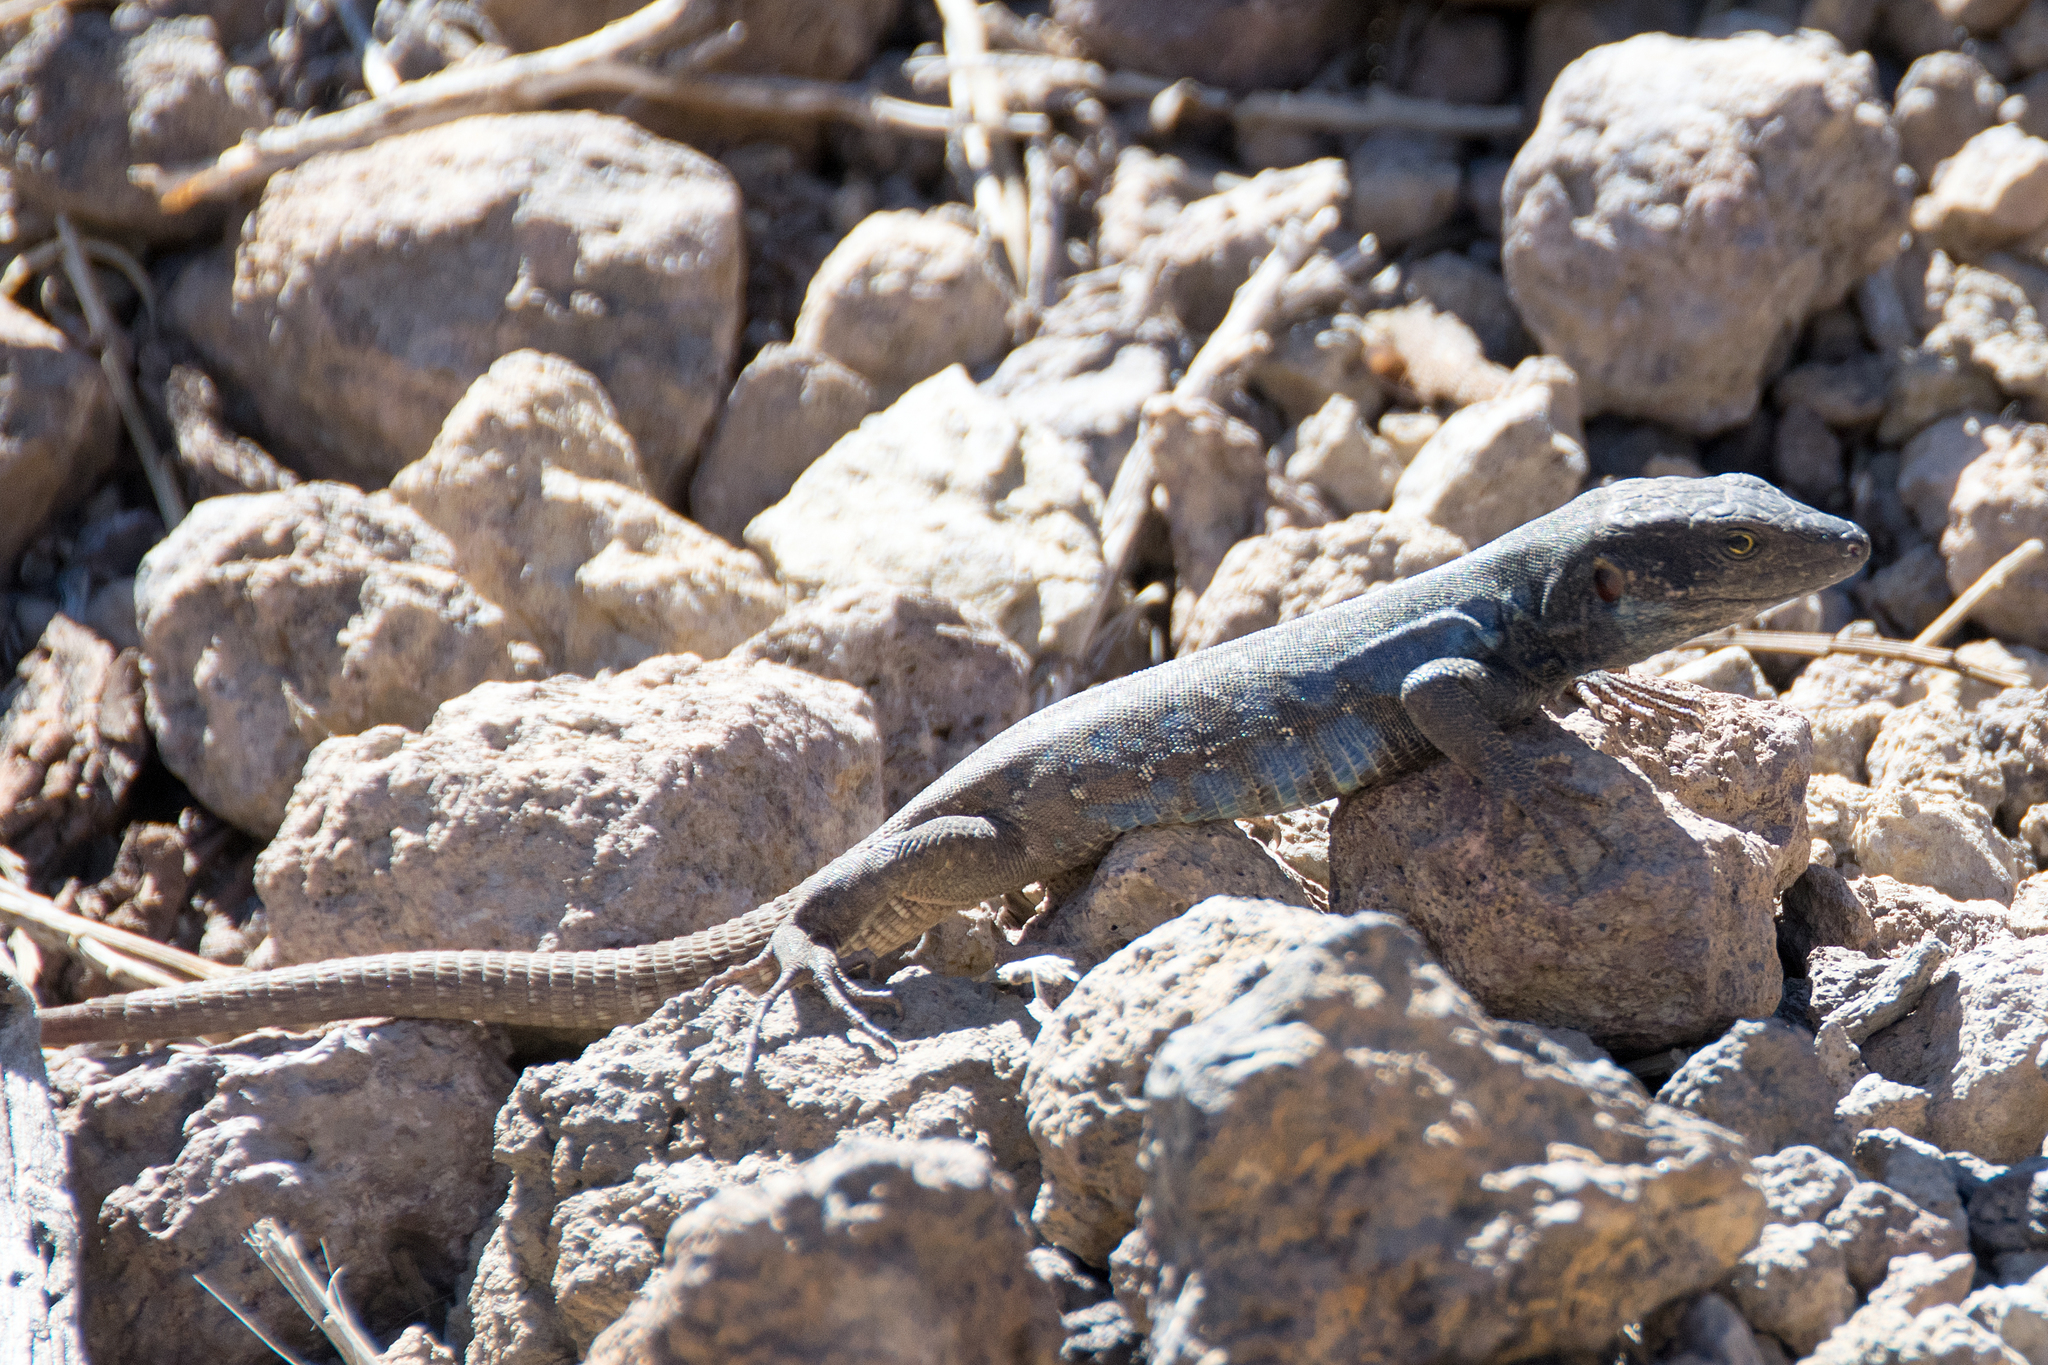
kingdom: Animalia
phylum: Chordata
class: Squamata
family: Lacertidae
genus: Gallotia
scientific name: Gallotia galloti
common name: Gallot's lizard
